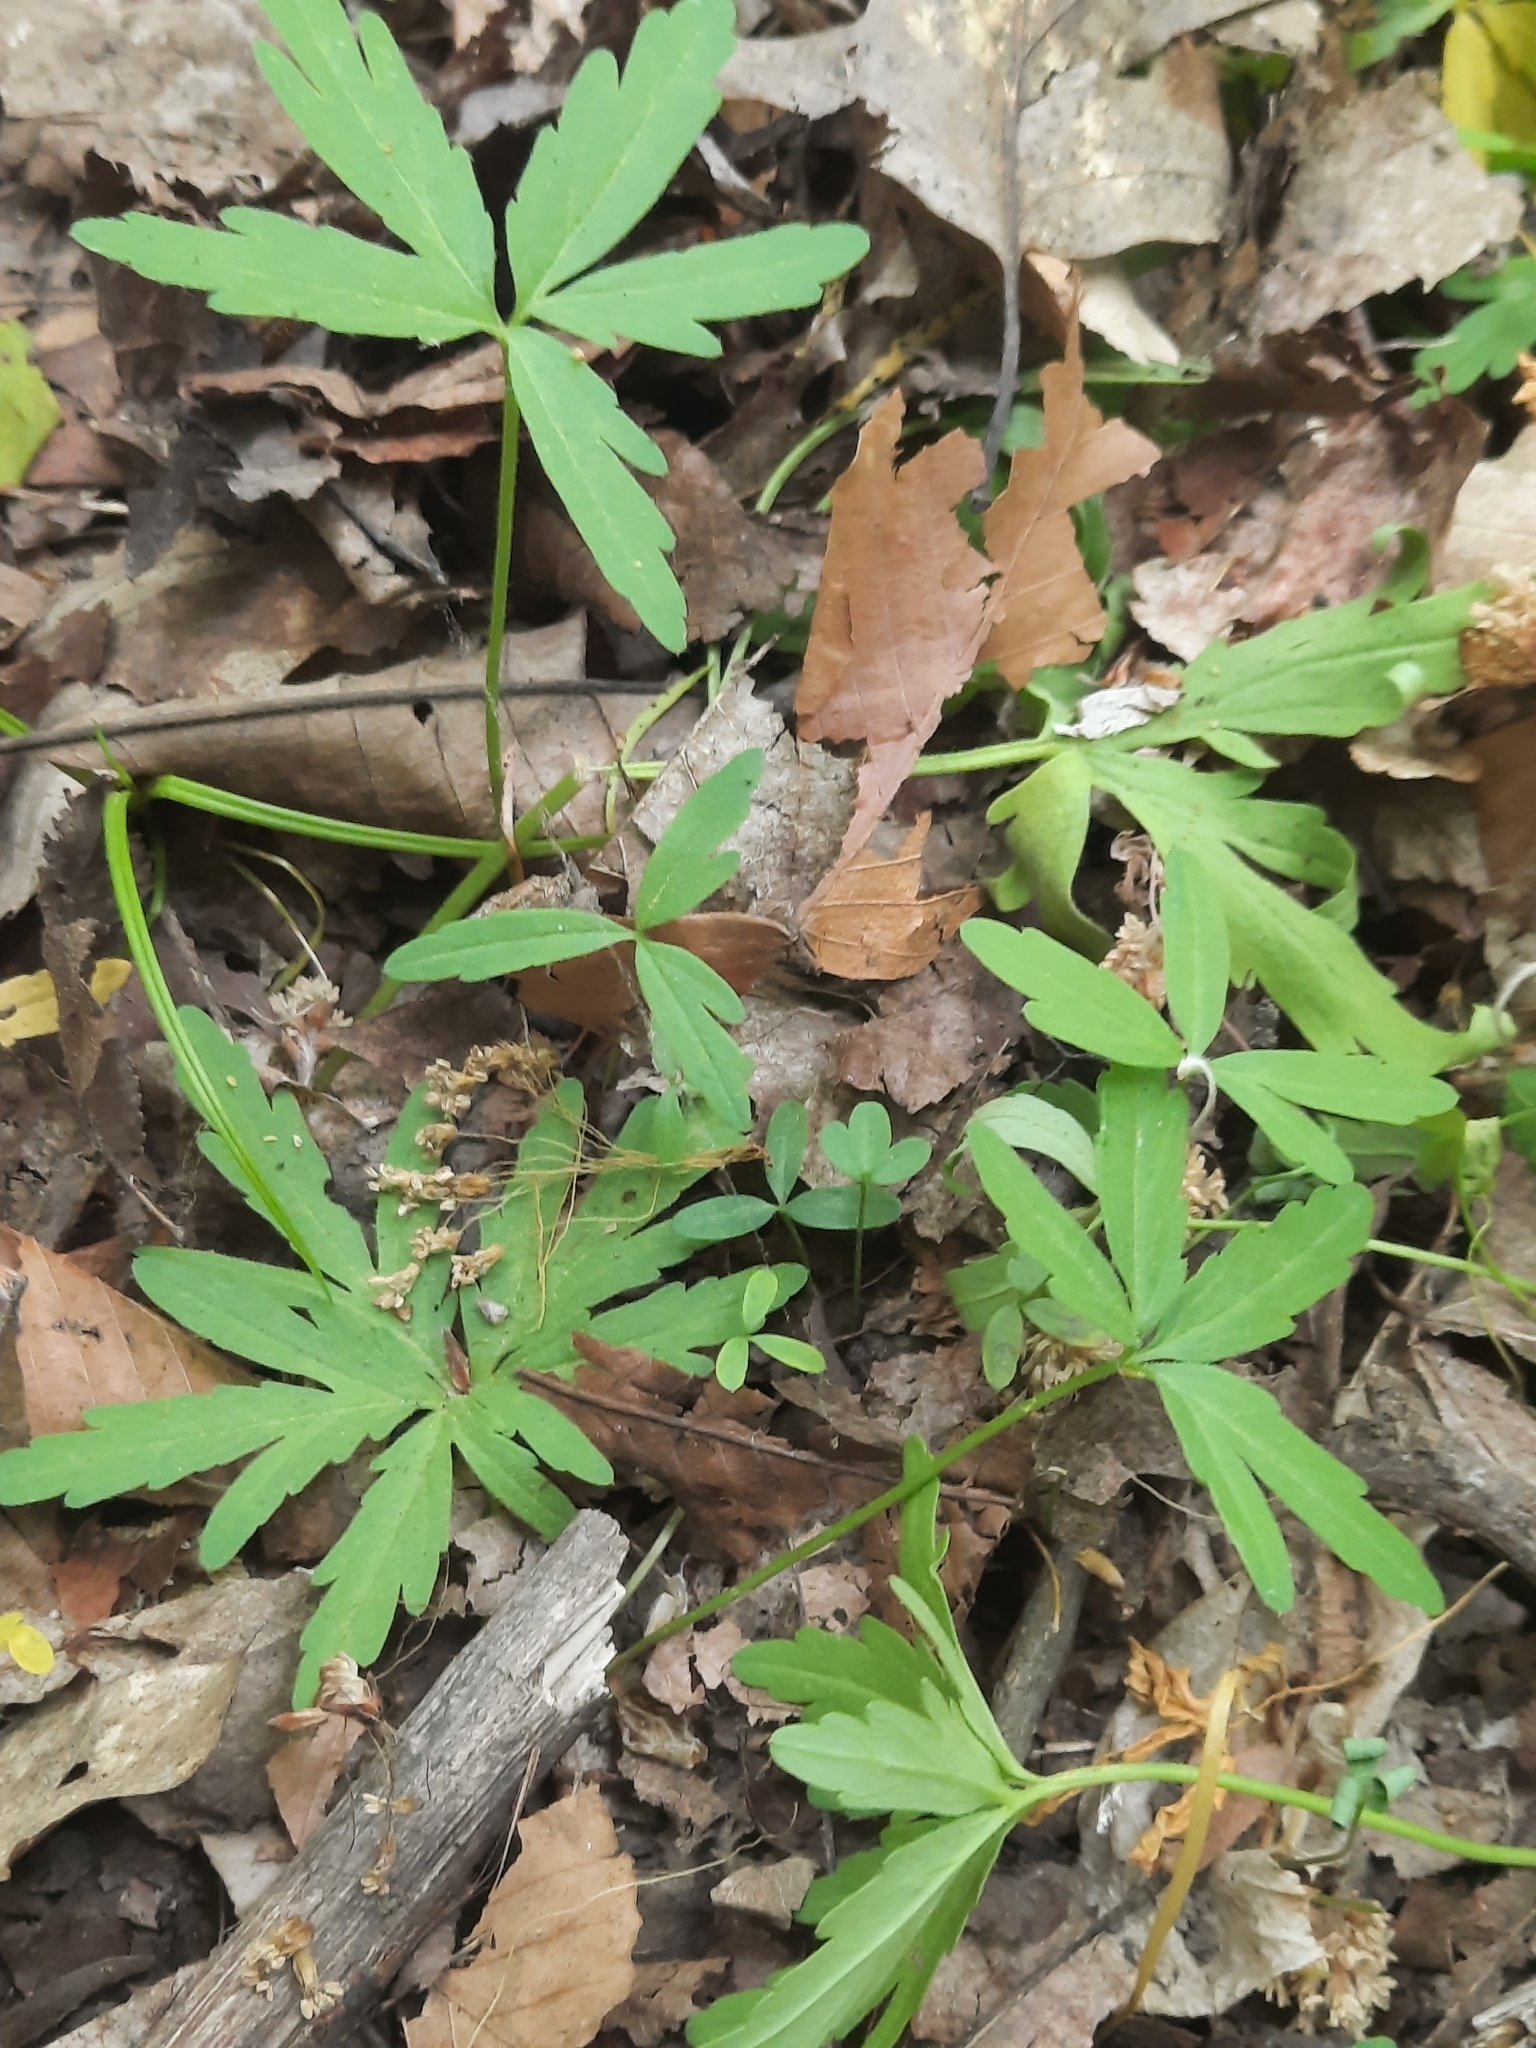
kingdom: Plantae
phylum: Tracheophyta
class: Magnoliopsida
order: Brassicales
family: Brassicaceae
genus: Cardamine
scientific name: Cardamine concatenata
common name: Cut-leaf toothcup
